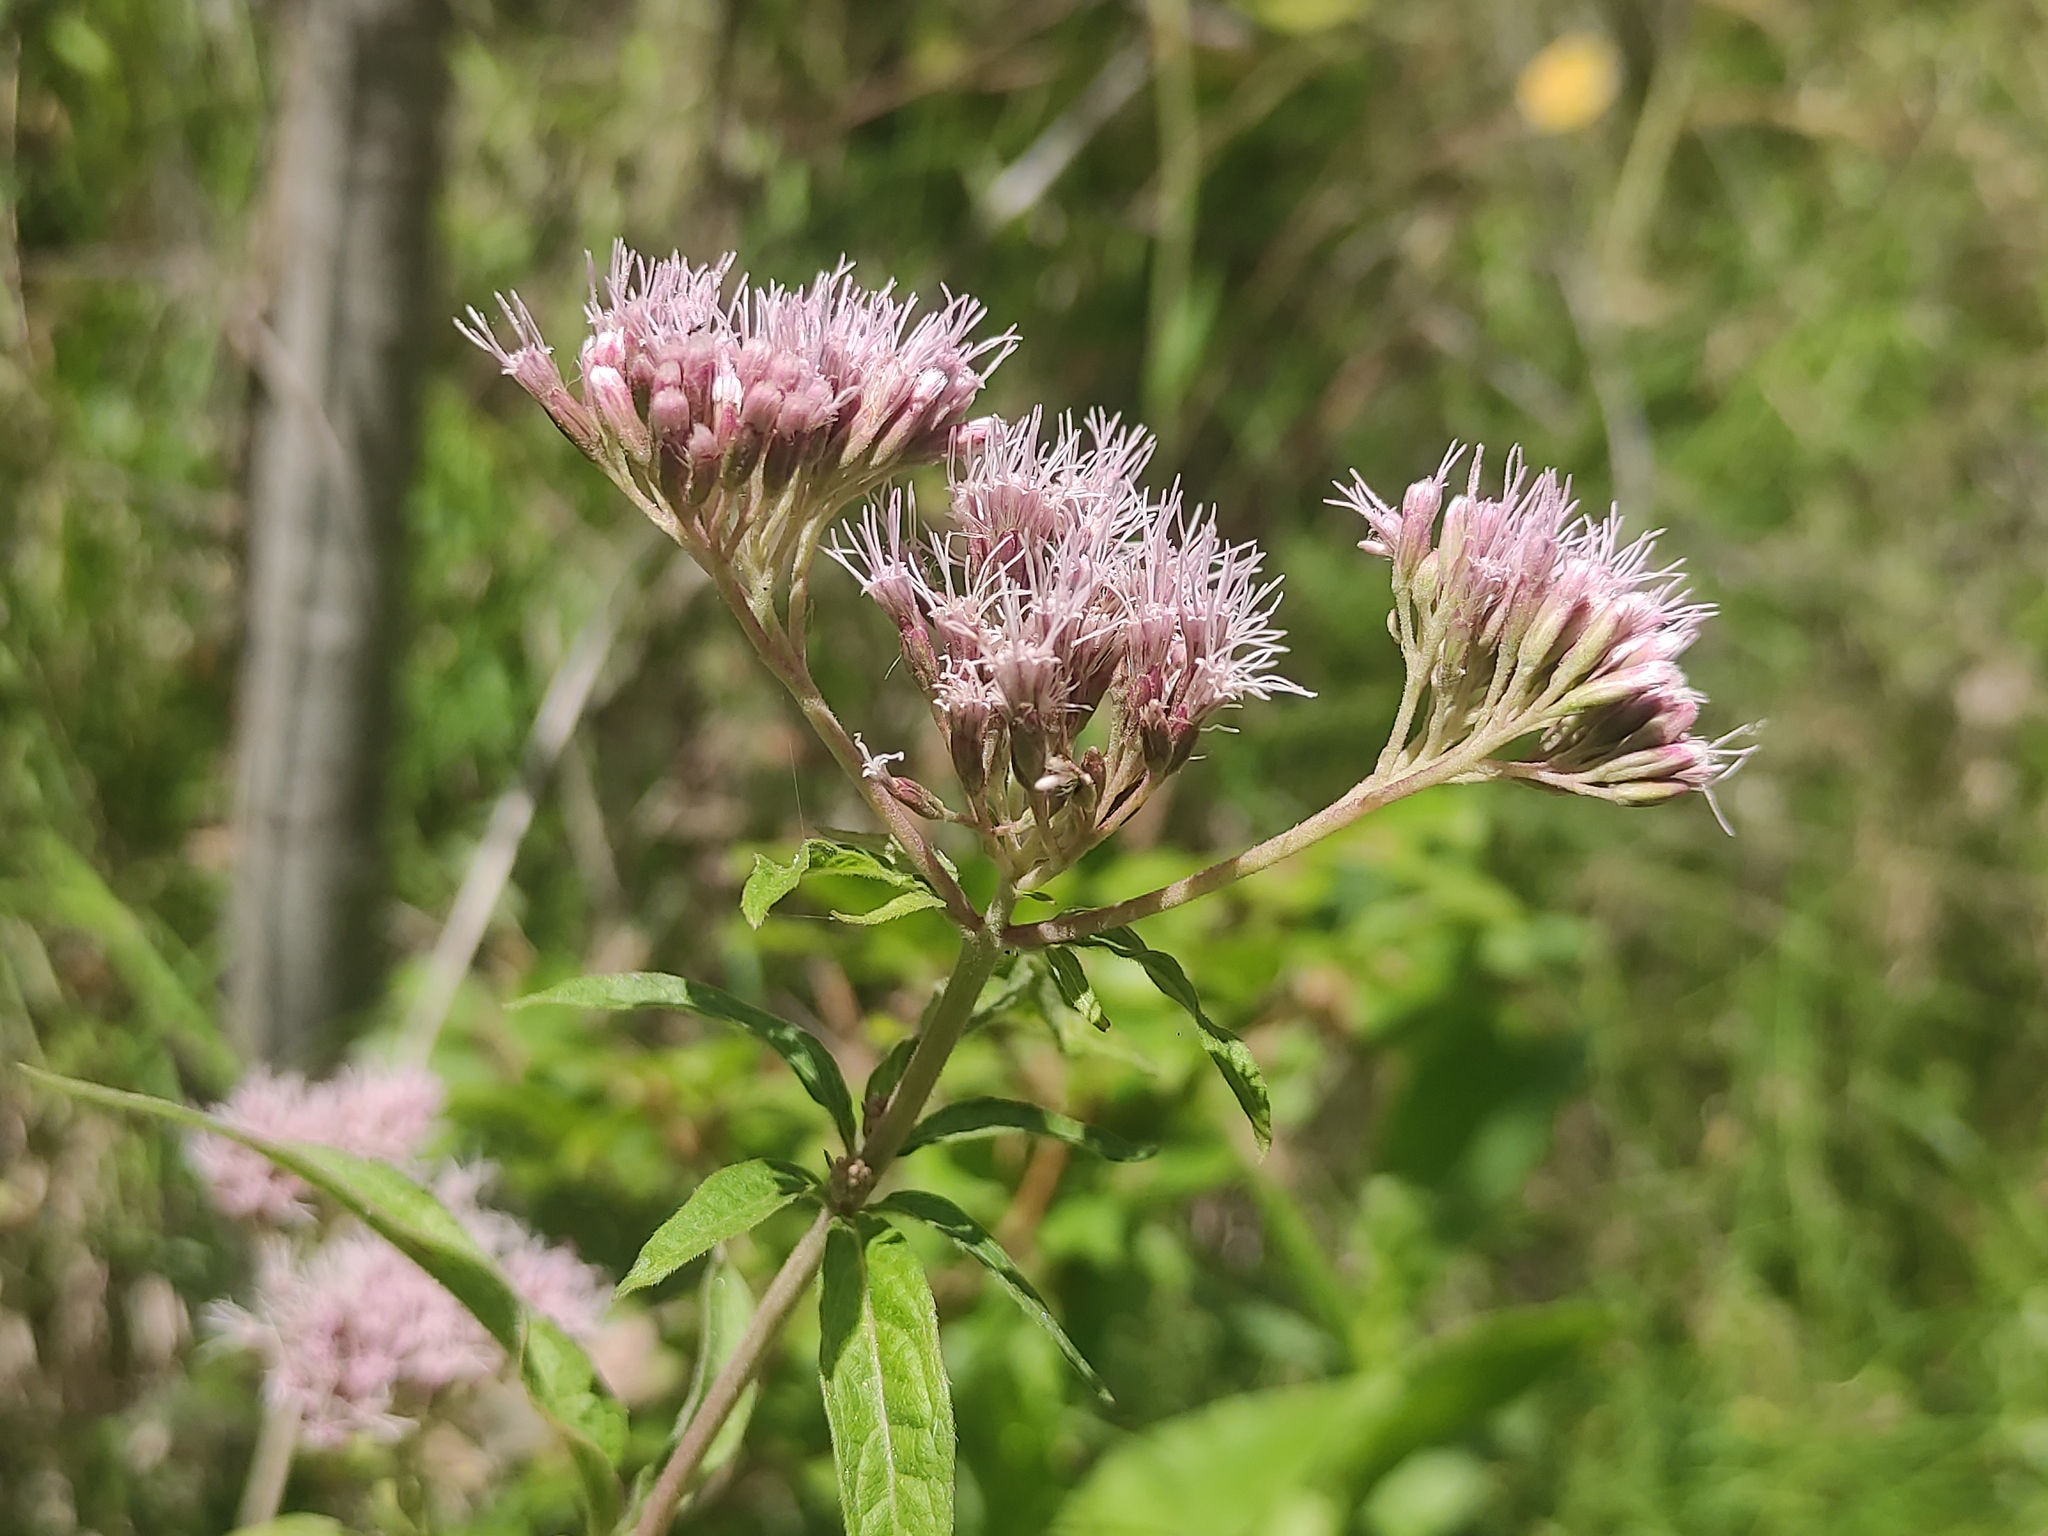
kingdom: Plantae
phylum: Tracheophyta
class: Magnoliopsida
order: Asterales
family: Asteraceae
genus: Eupatorium
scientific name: Eupatorium cannabinum
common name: Hemp-agrimony
